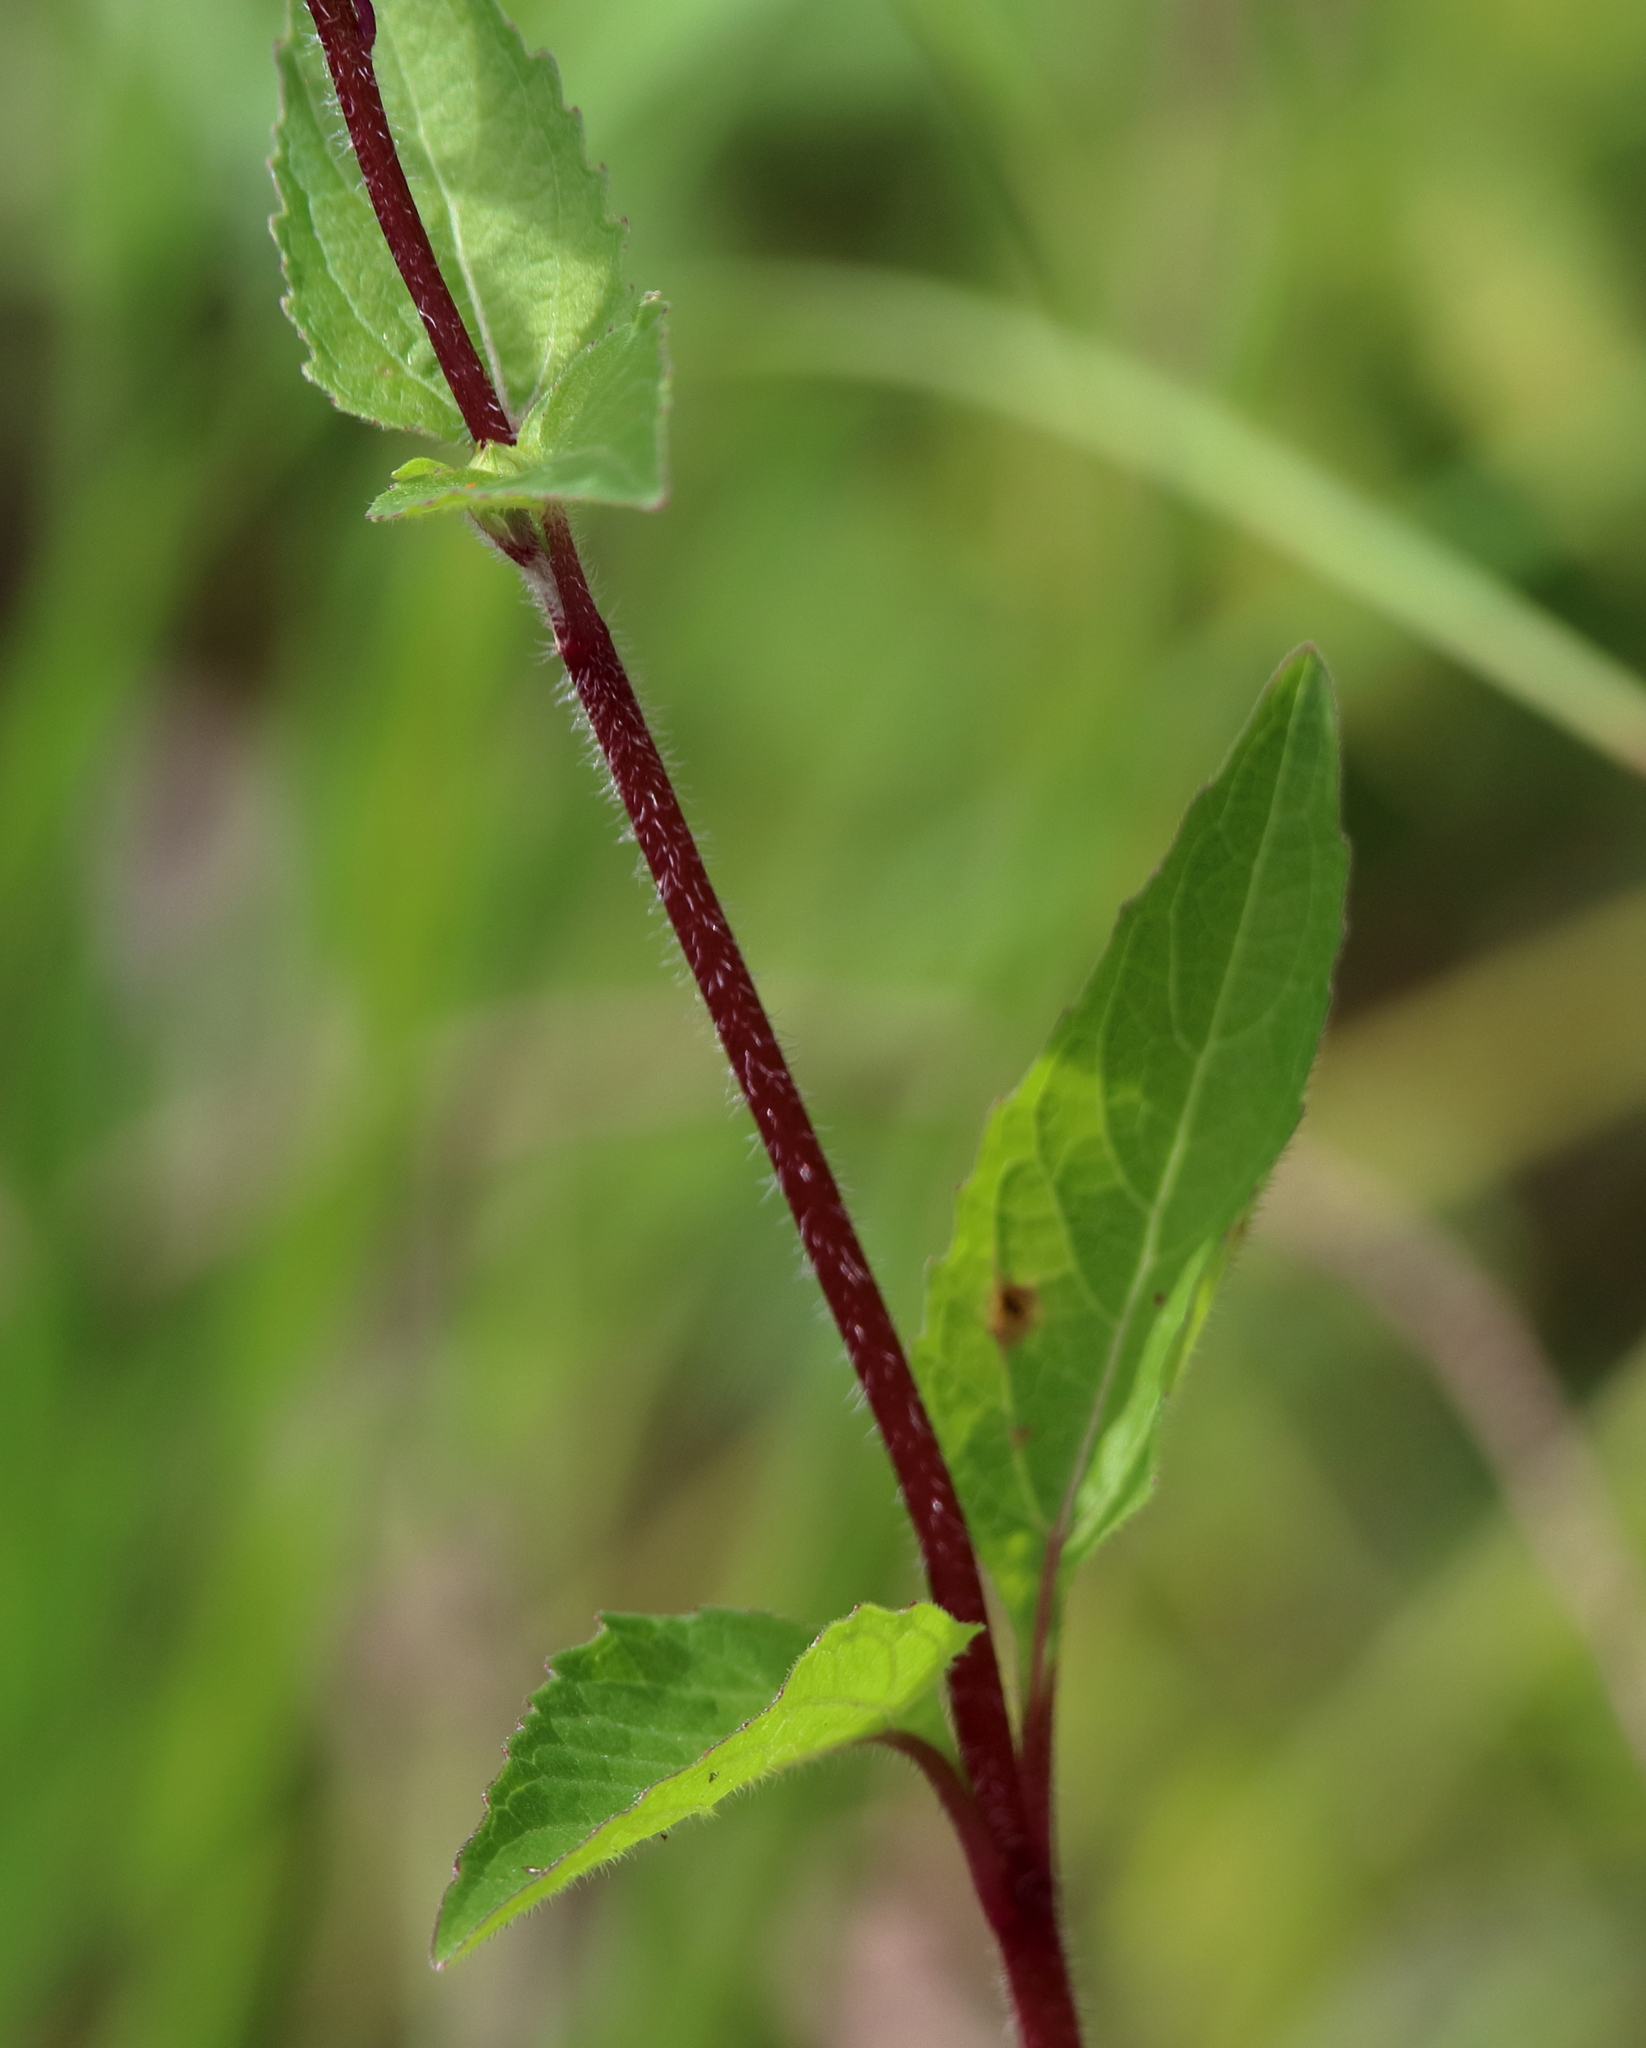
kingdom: Plantae
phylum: Tracheophyta
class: Magnoliopsida
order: Asterales
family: Asteraceae
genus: Acmella
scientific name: Acmella repens
